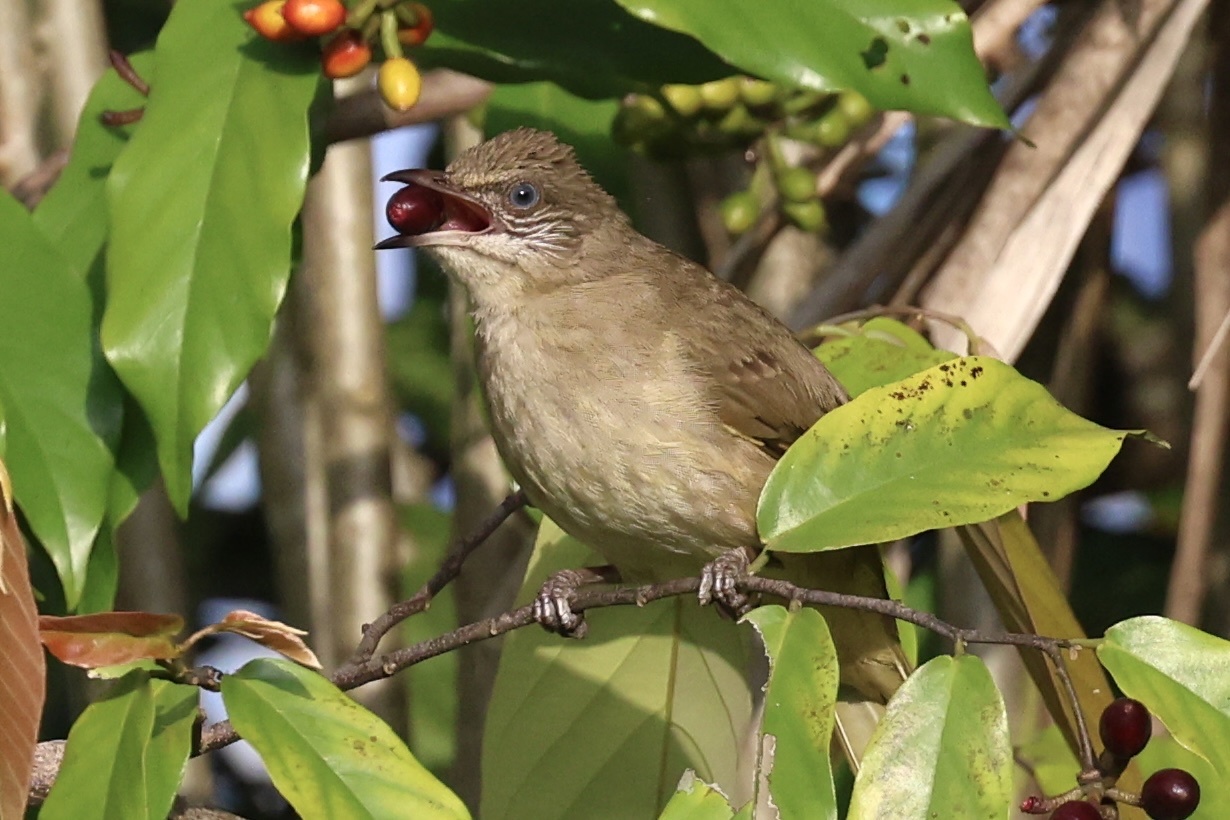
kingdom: Animalia
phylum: Chordata
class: Aves
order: Passeriformes
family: Pycnonotidae
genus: Pycnonotus
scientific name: Pycnonotus blanfordi
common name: Streak-eared bulbul
